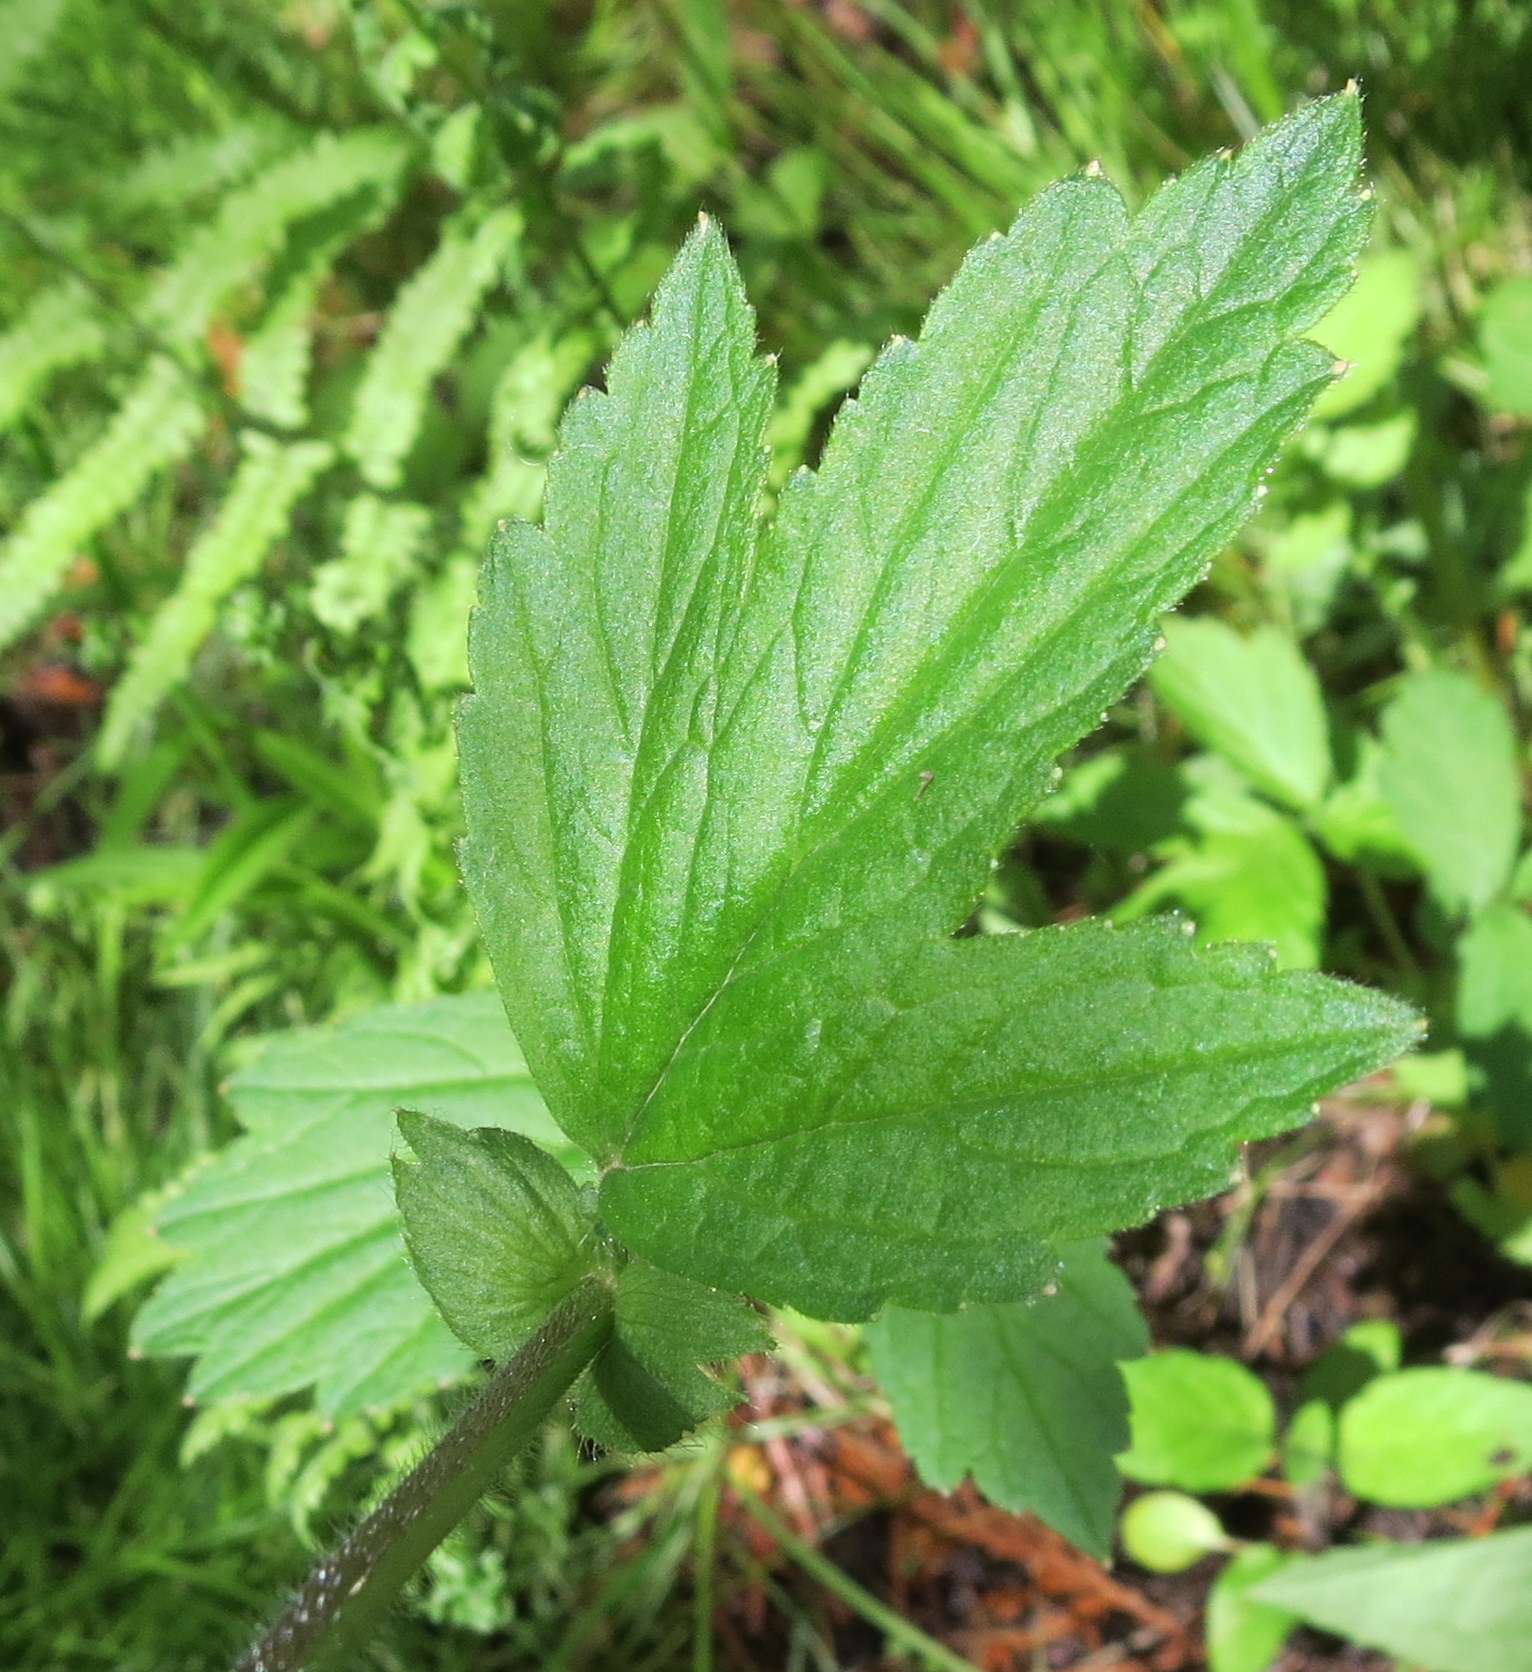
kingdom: Plantae
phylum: Tracheophyta
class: Magnoliopsida
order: Rosales
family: Rosaceae
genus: Geum
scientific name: Geum rivale
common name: Water avens
